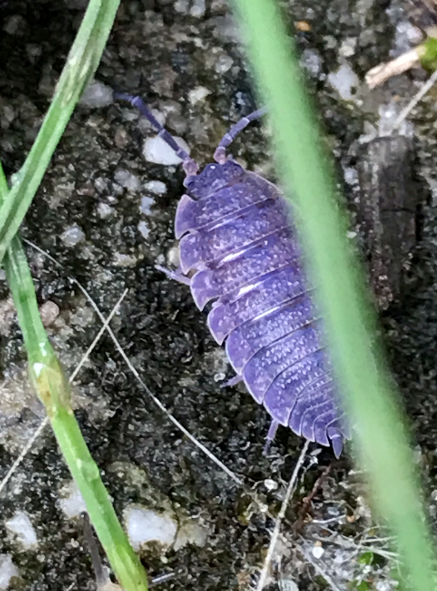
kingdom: Viruses
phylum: Nucleocytoviricota
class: Megaviricetes
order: Pimascovirales
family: Iridoviridae
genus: Iridovirus
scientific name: Iridovirus Invertebrate iridescent virus 31
